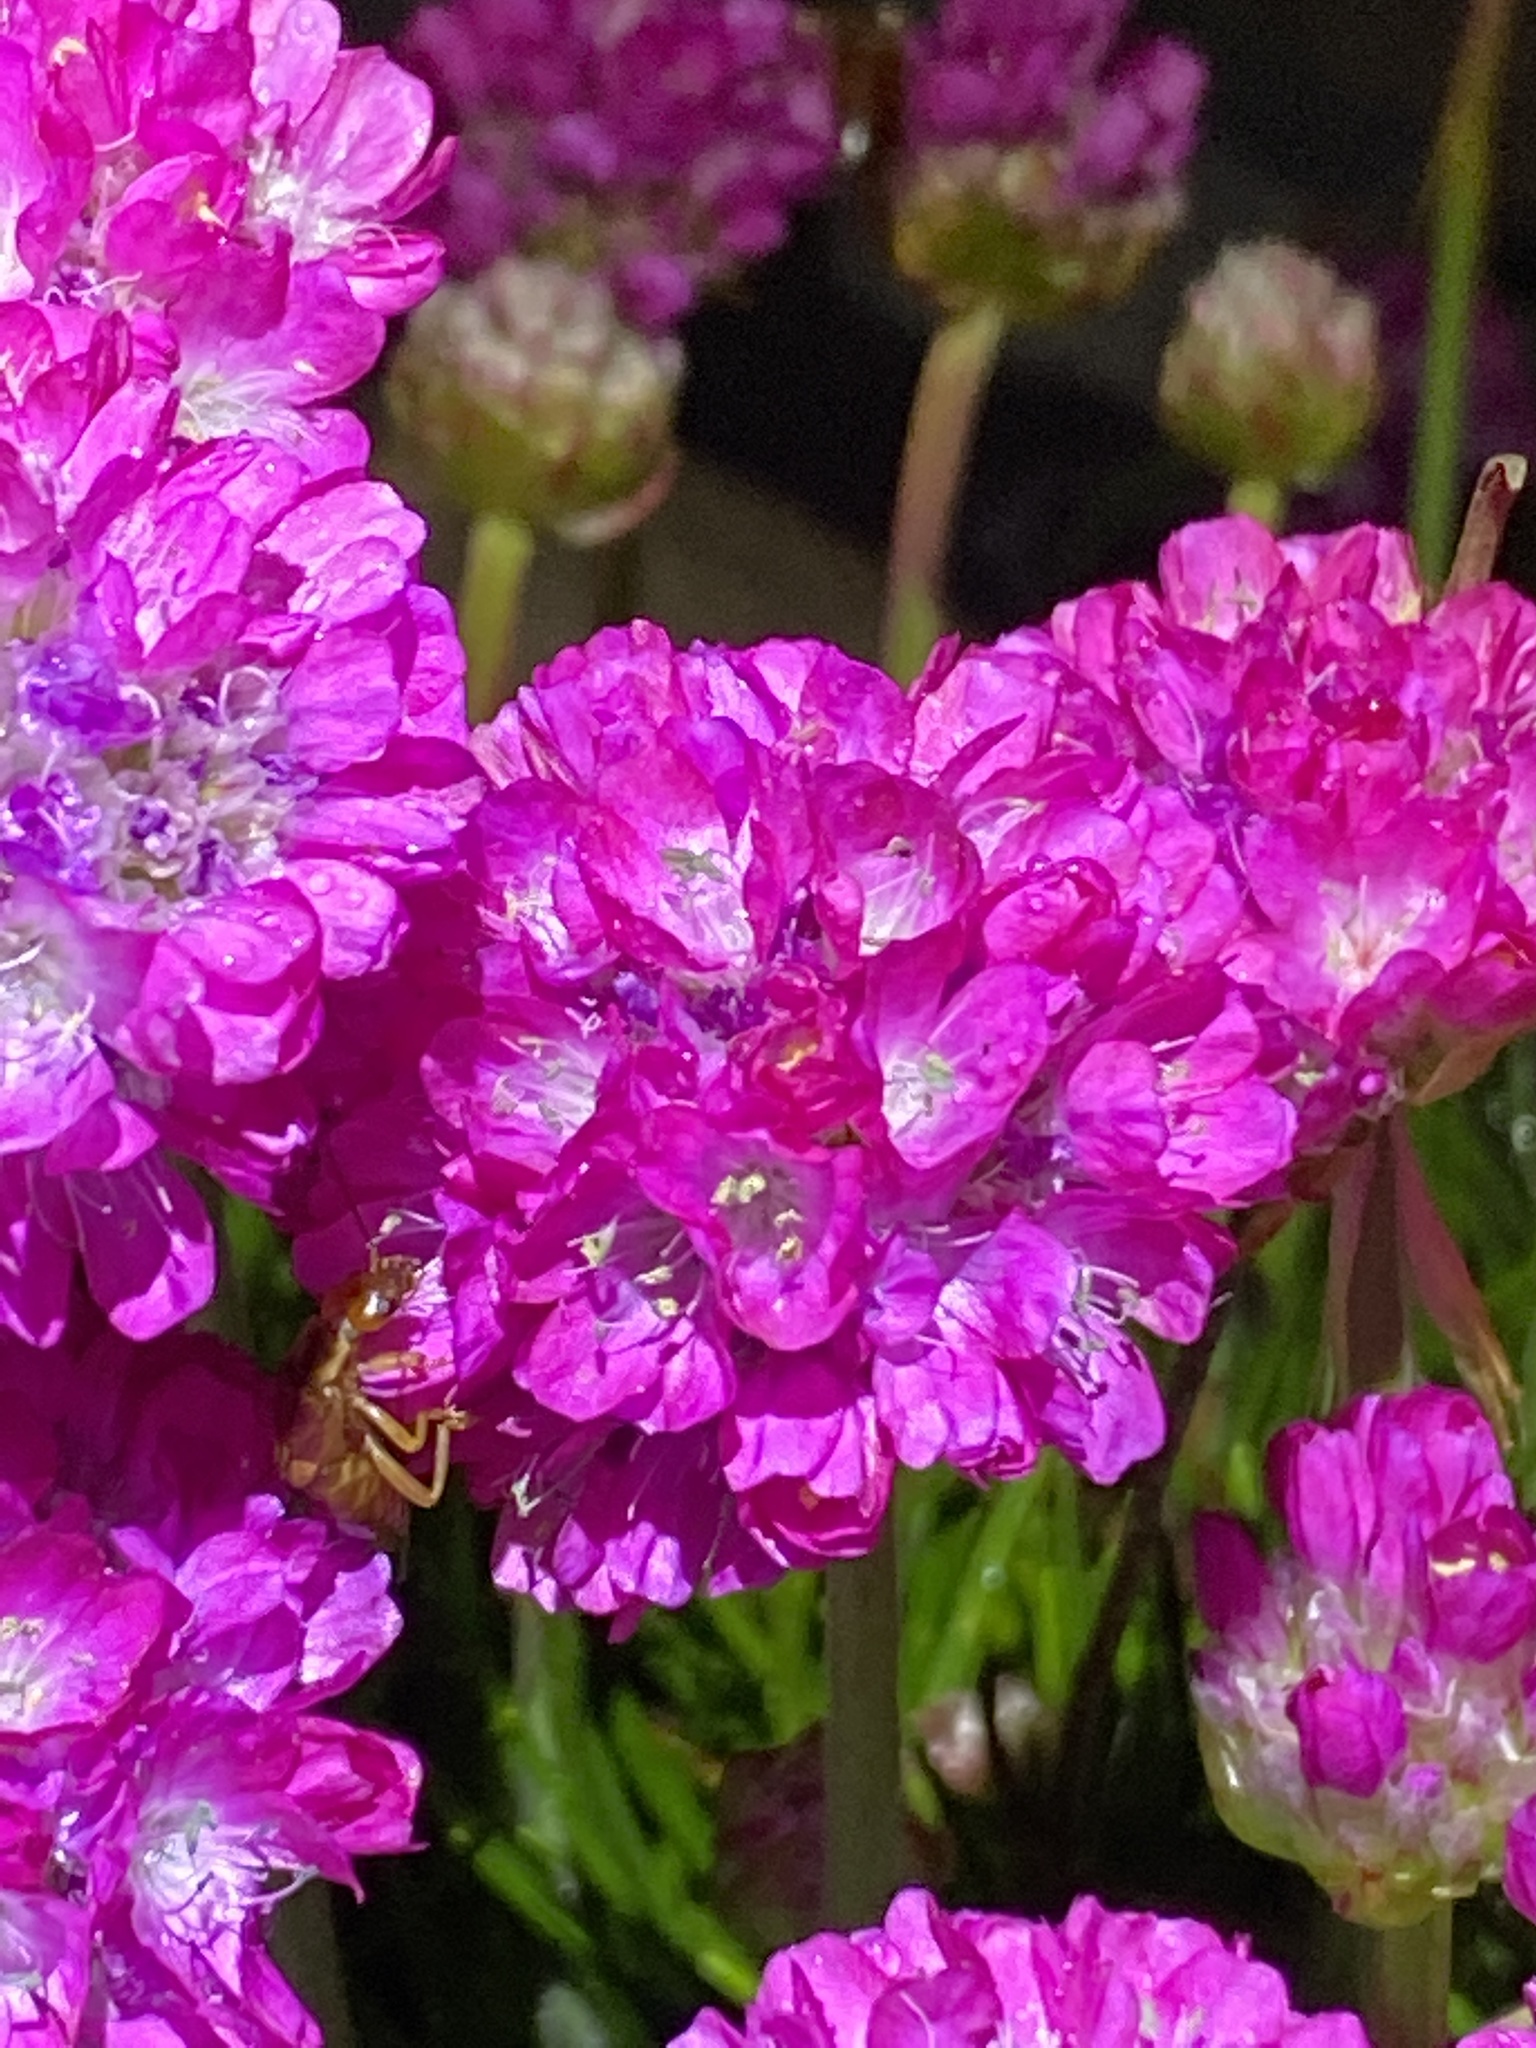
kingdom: Plantae
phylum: Tracheophyta
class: Magnoliopsida
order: Caryophyllales
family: Plumbaginaceae
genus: Armeria
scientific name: Armeria maritima
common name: Thrift
